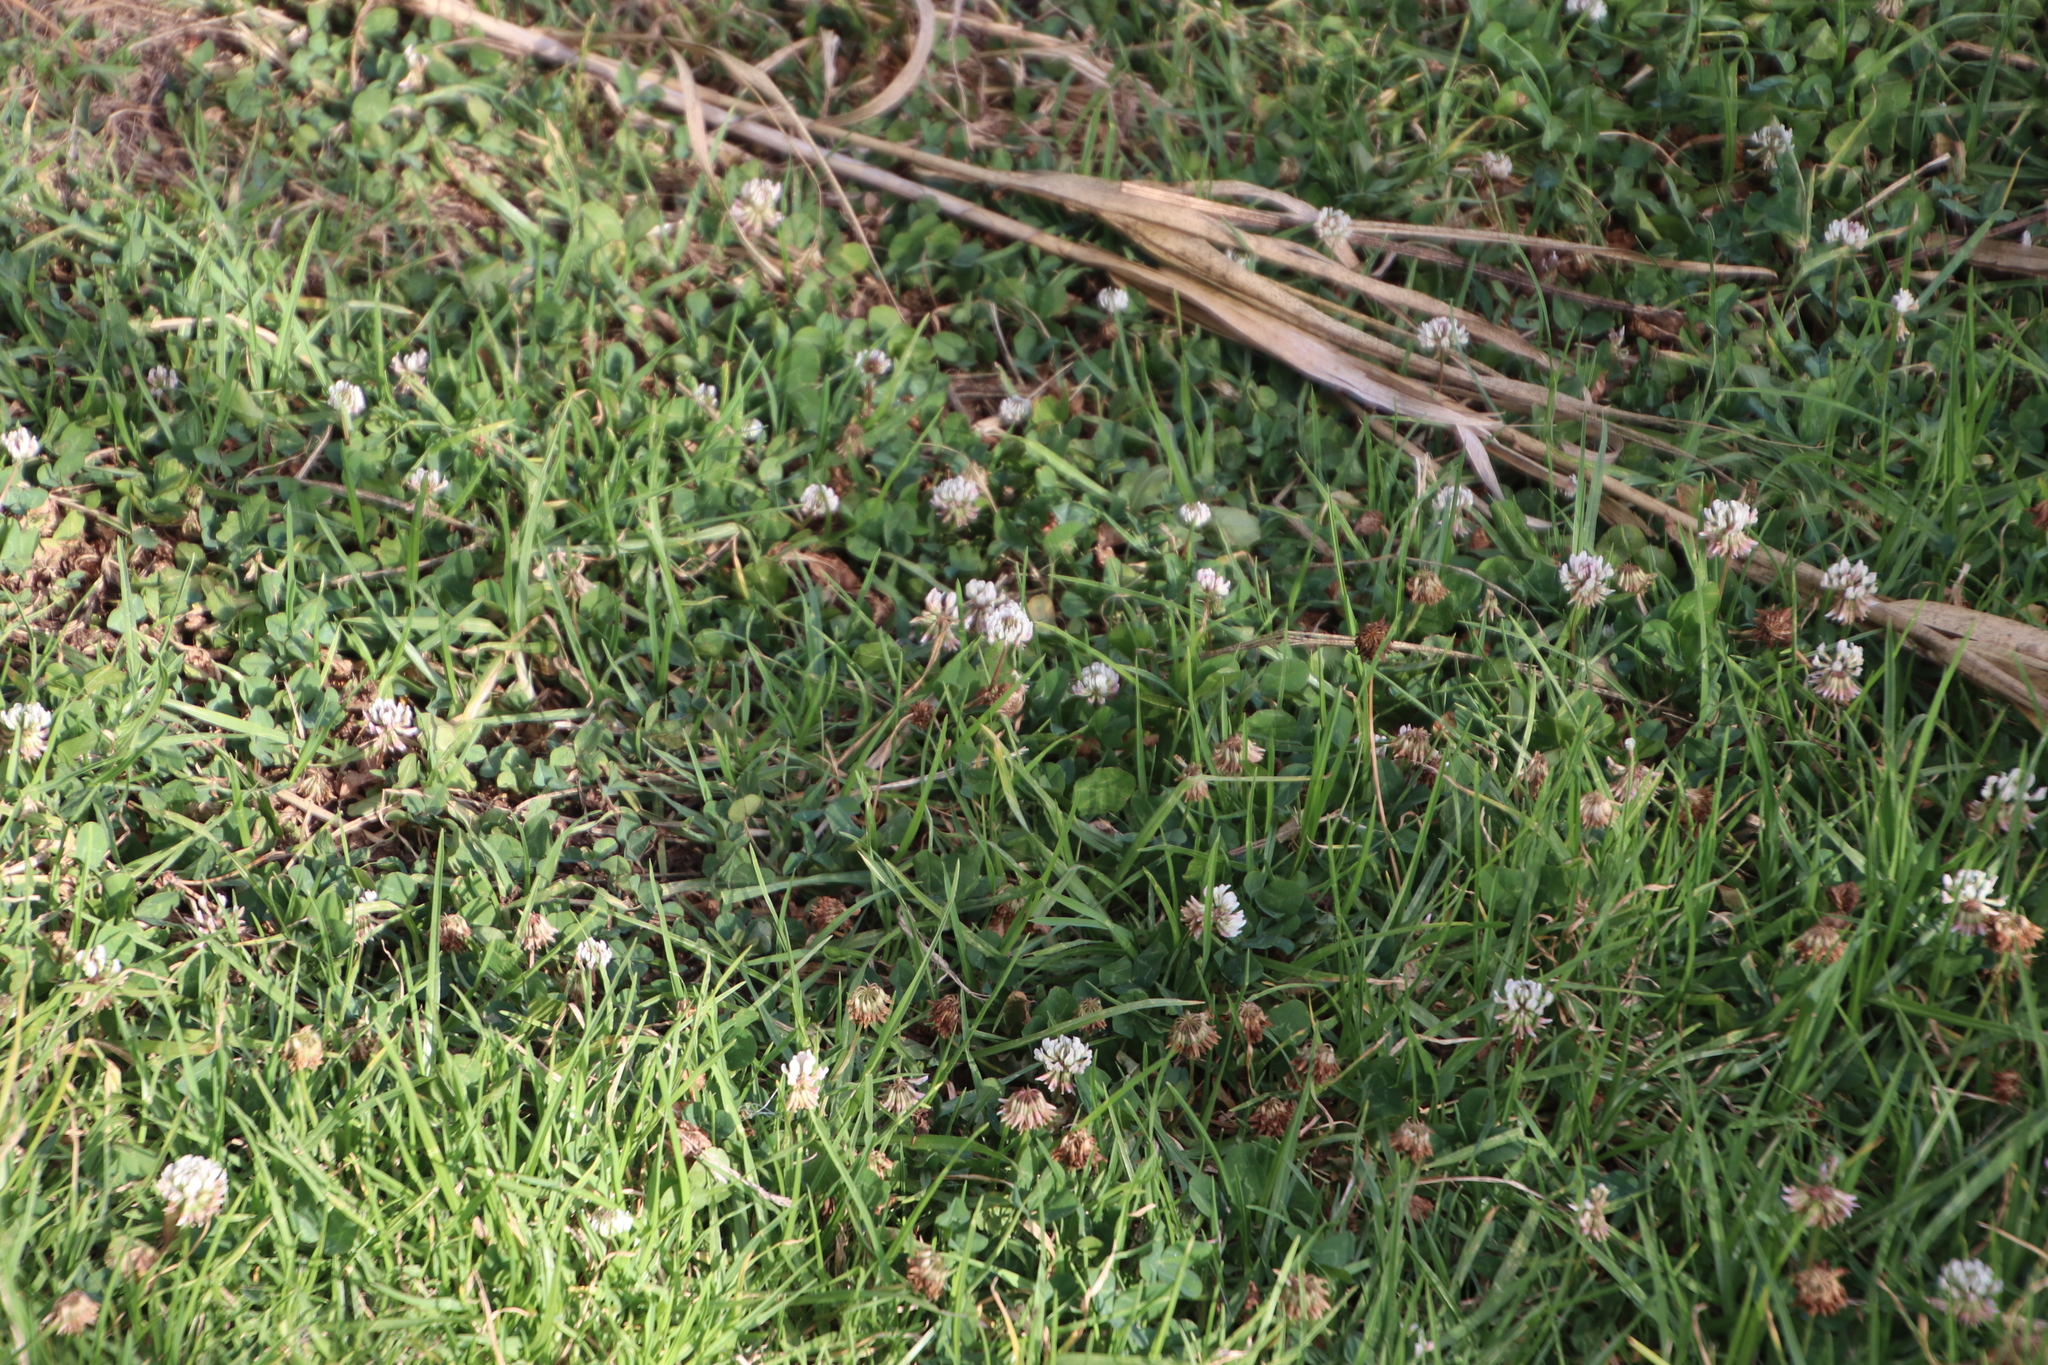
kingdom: Plantae
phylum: Tracheophyta
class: Magnoliopsida
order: Fabales
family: Fabaceae
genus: Trifolium
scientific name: Trifolium repens
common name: White clover
